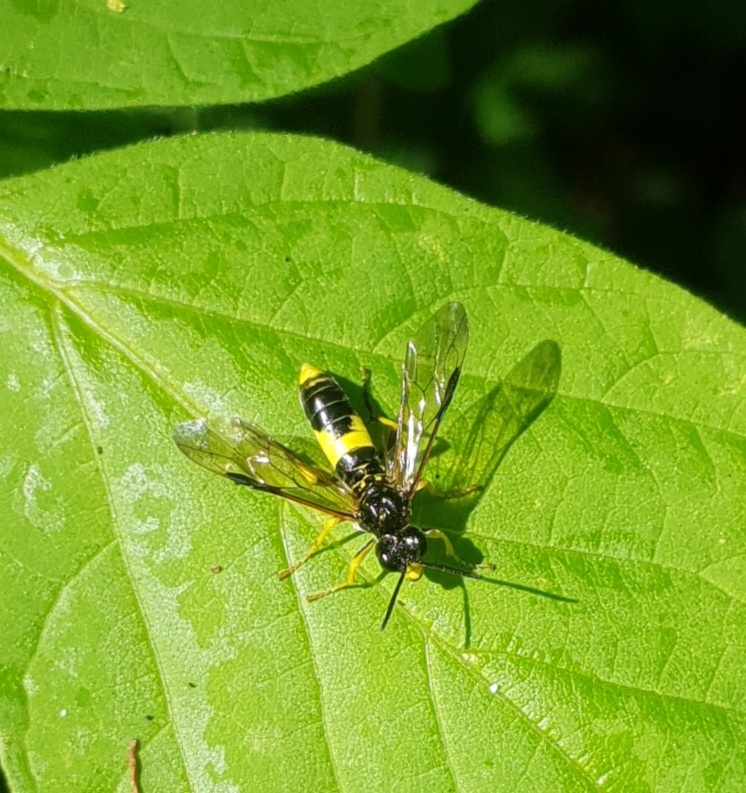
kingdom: Animalia
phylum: Arthropoda
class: Insecta
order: Hymenoptera
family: Tenthredinidae
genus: Tenthredo
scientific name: Tenthredo temula
